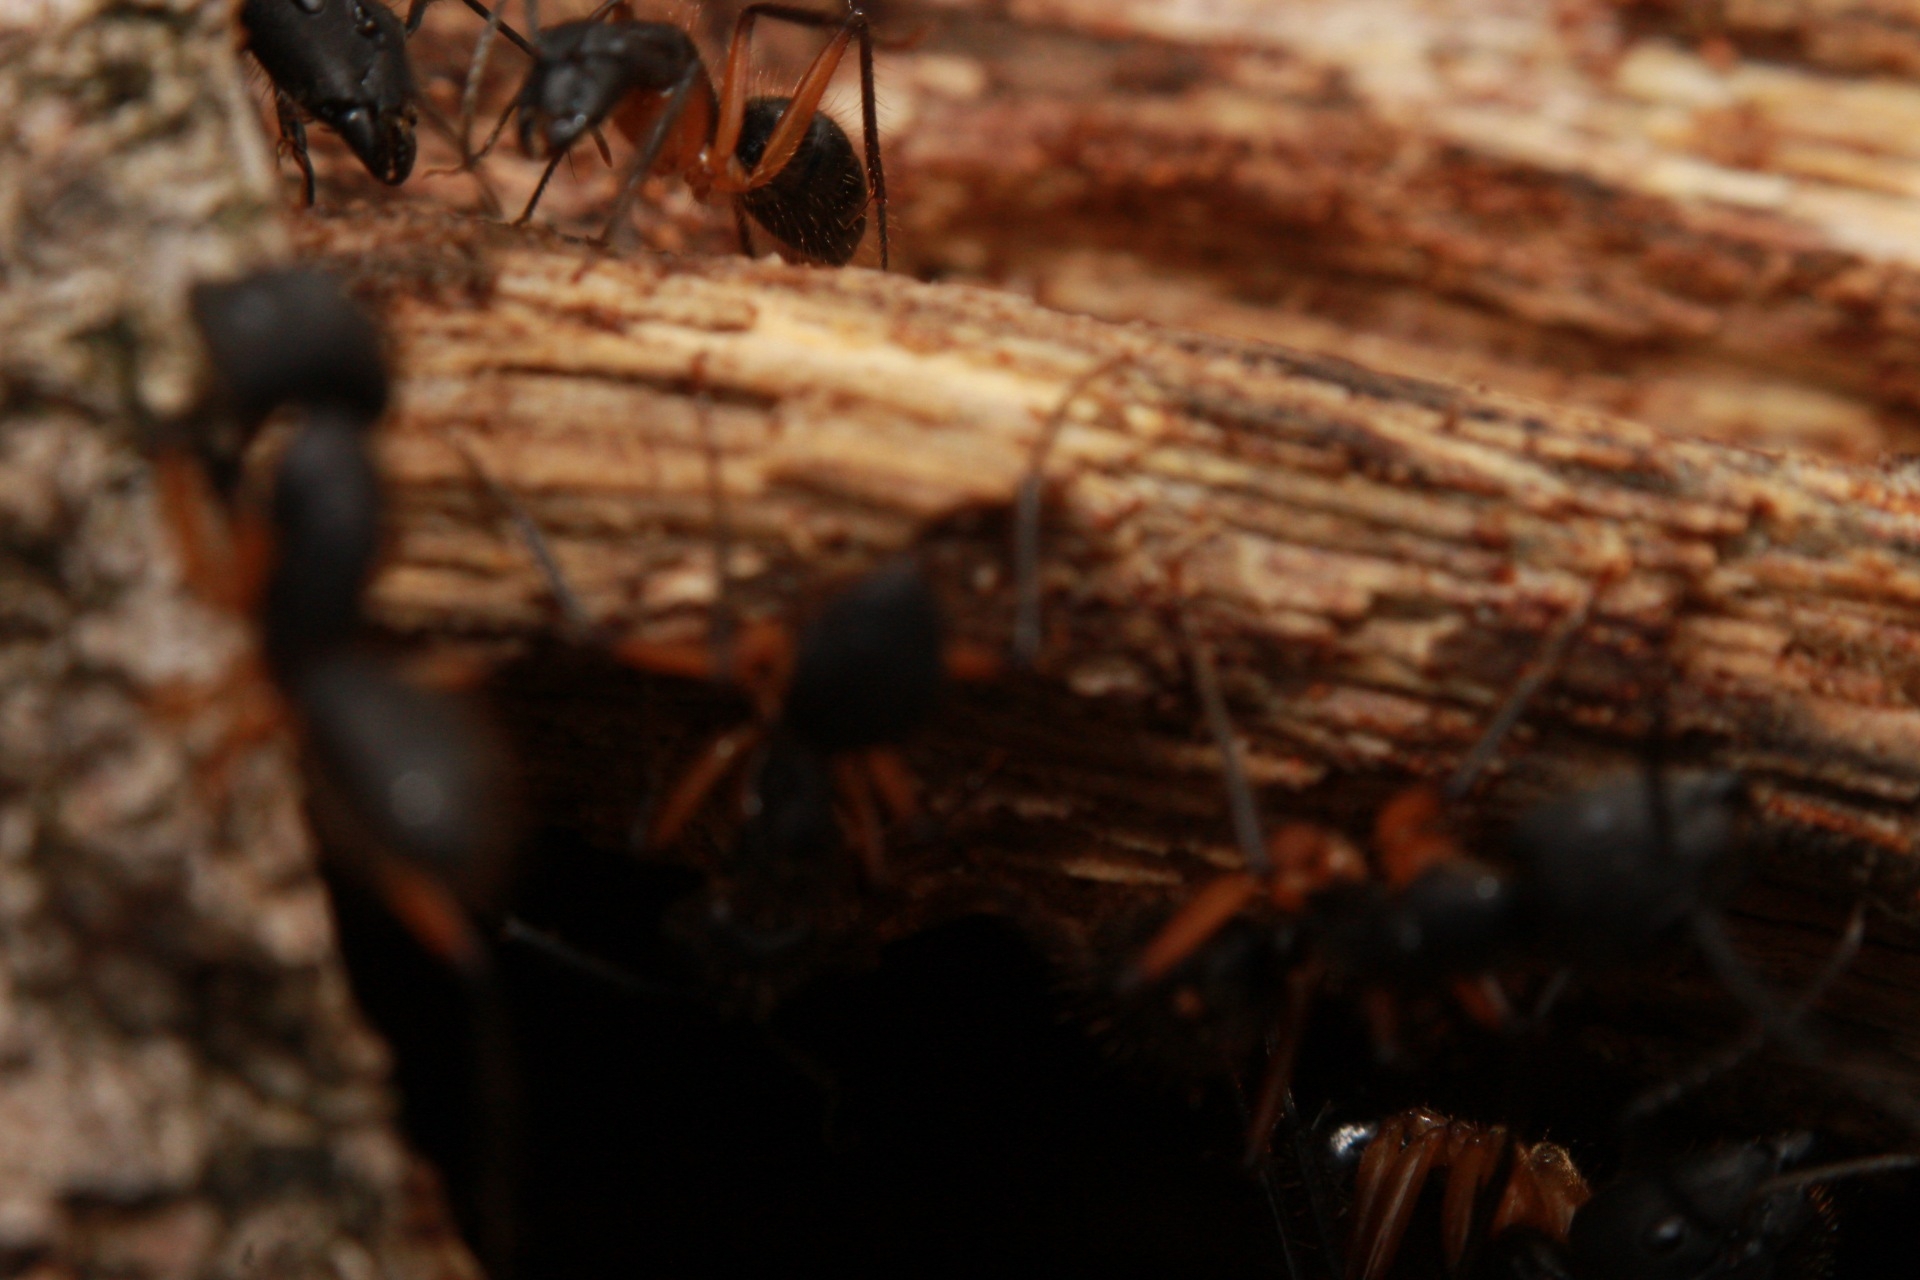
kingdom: Animalia
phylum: Arthropoda
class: Insecta
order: Hymenoptera
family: Formicidae
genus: Camponotus
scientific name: Camponotus renggeri
